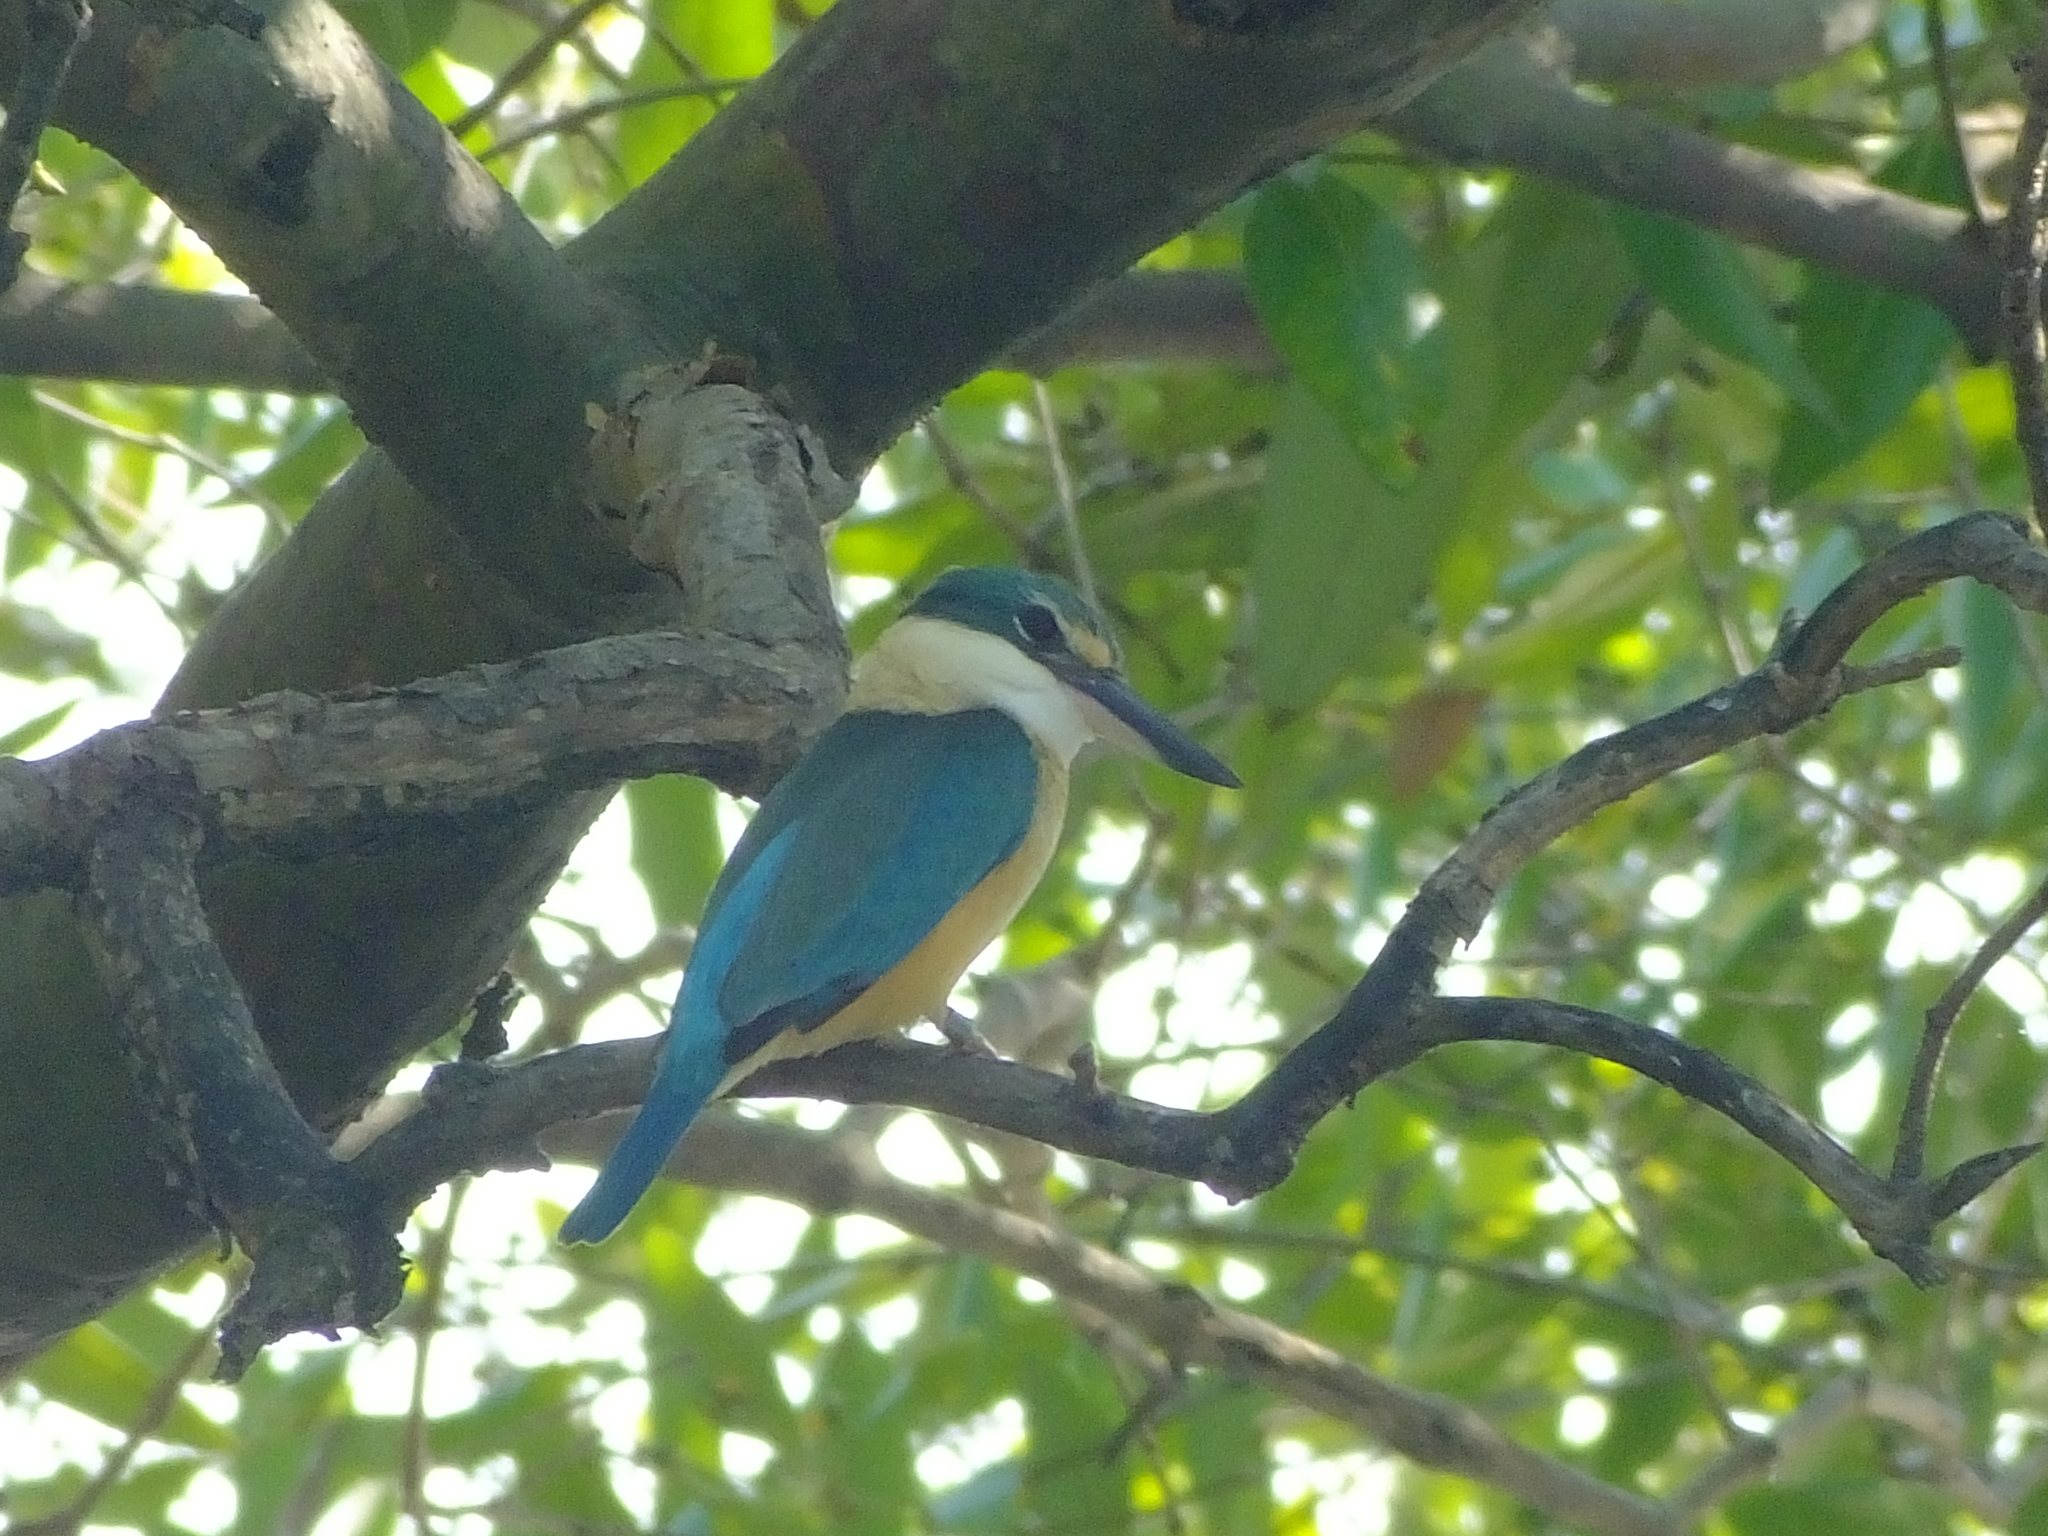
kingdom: Animalia
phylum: Chordata
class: Aves
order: Coraciiformes
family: Alcedinidae
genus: Todiramphus
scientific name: Todiramphus sanctus
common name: Sacred kingfisher
